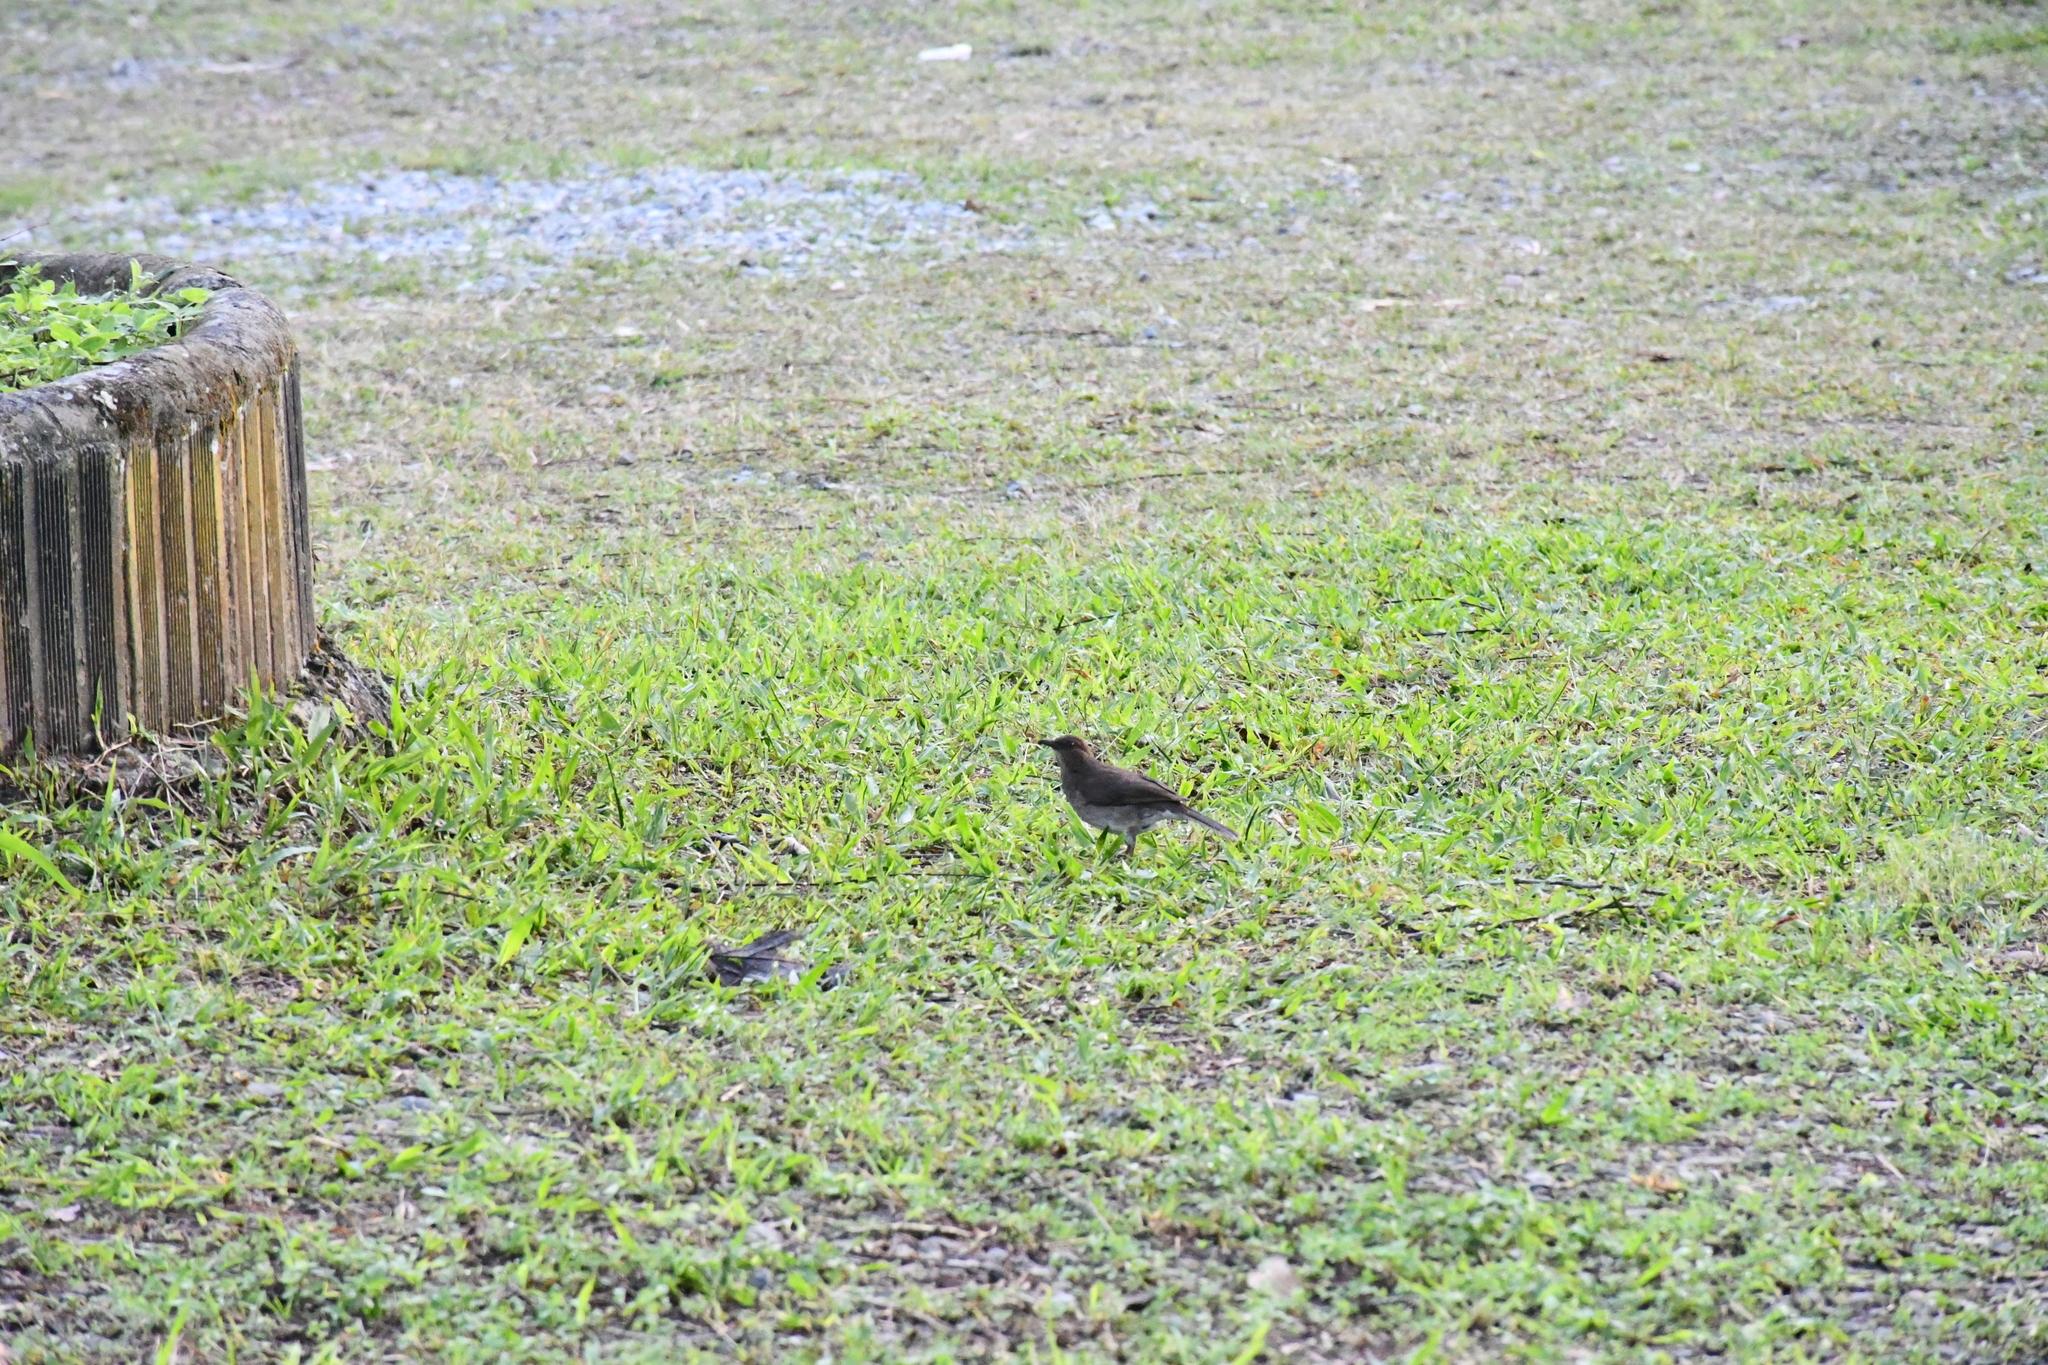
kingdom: Animalia
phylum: Chordata
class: Aves
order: Passeriformes
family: Turdidae
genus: Turdus
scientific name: Turdus ignobilis
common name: Black-billed thrush
